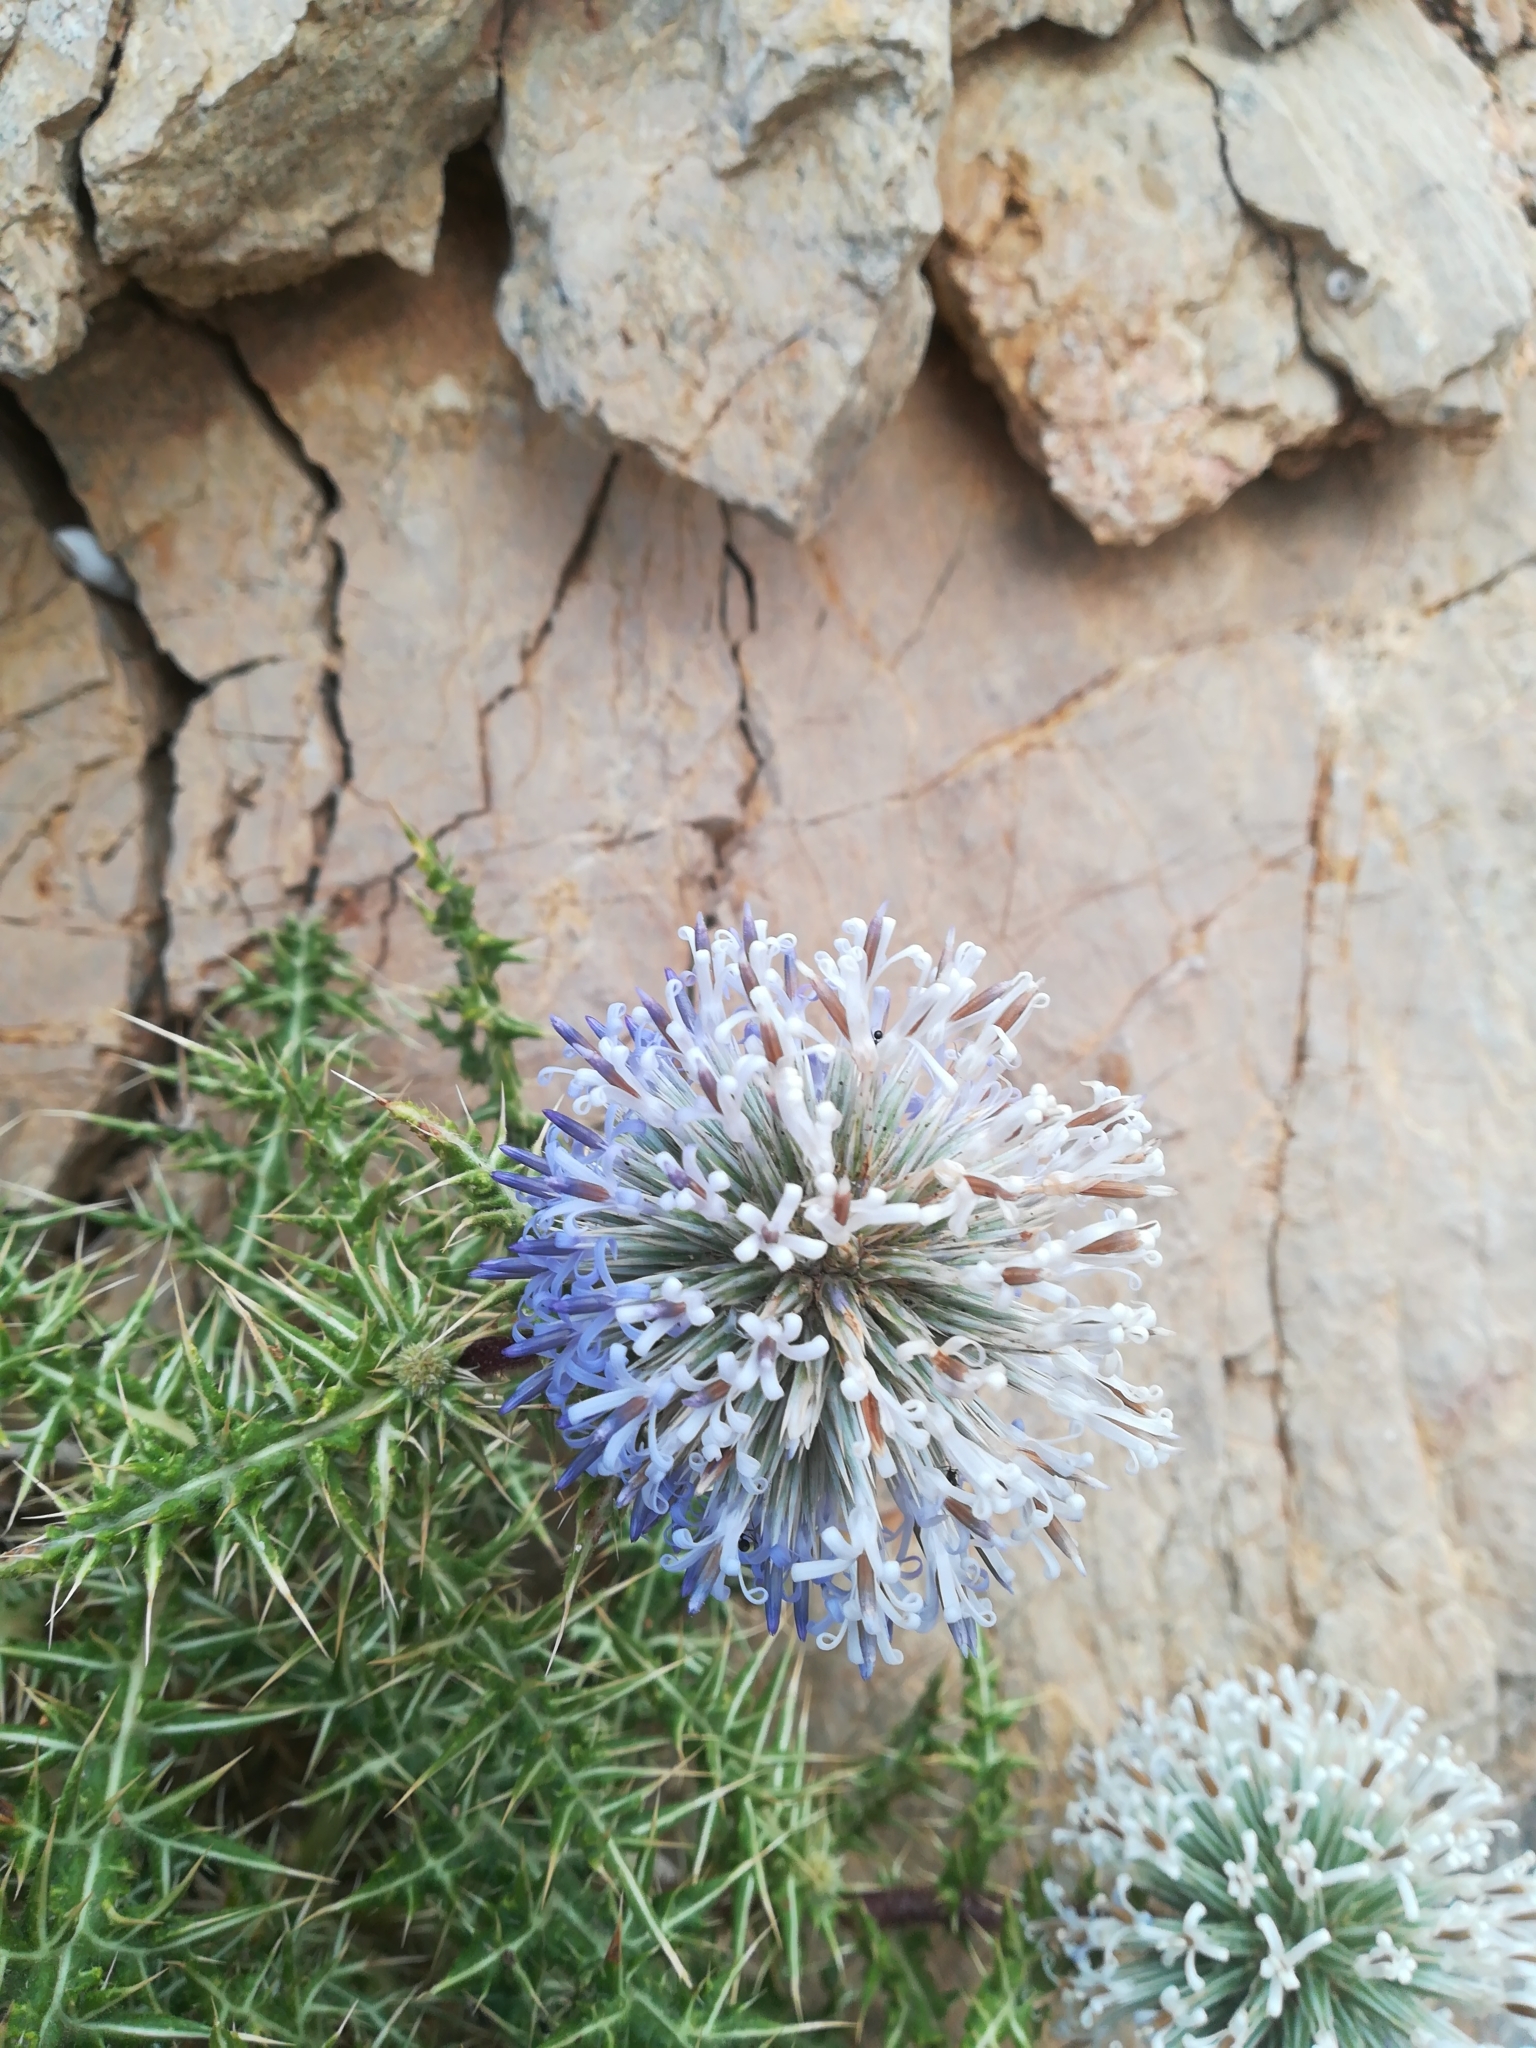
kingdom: Plantae
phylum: Tracheophyta
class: Magnoliopsida
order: Asterales
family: Asteraceae
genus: Echinops
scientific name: Echinops spinosissimus
